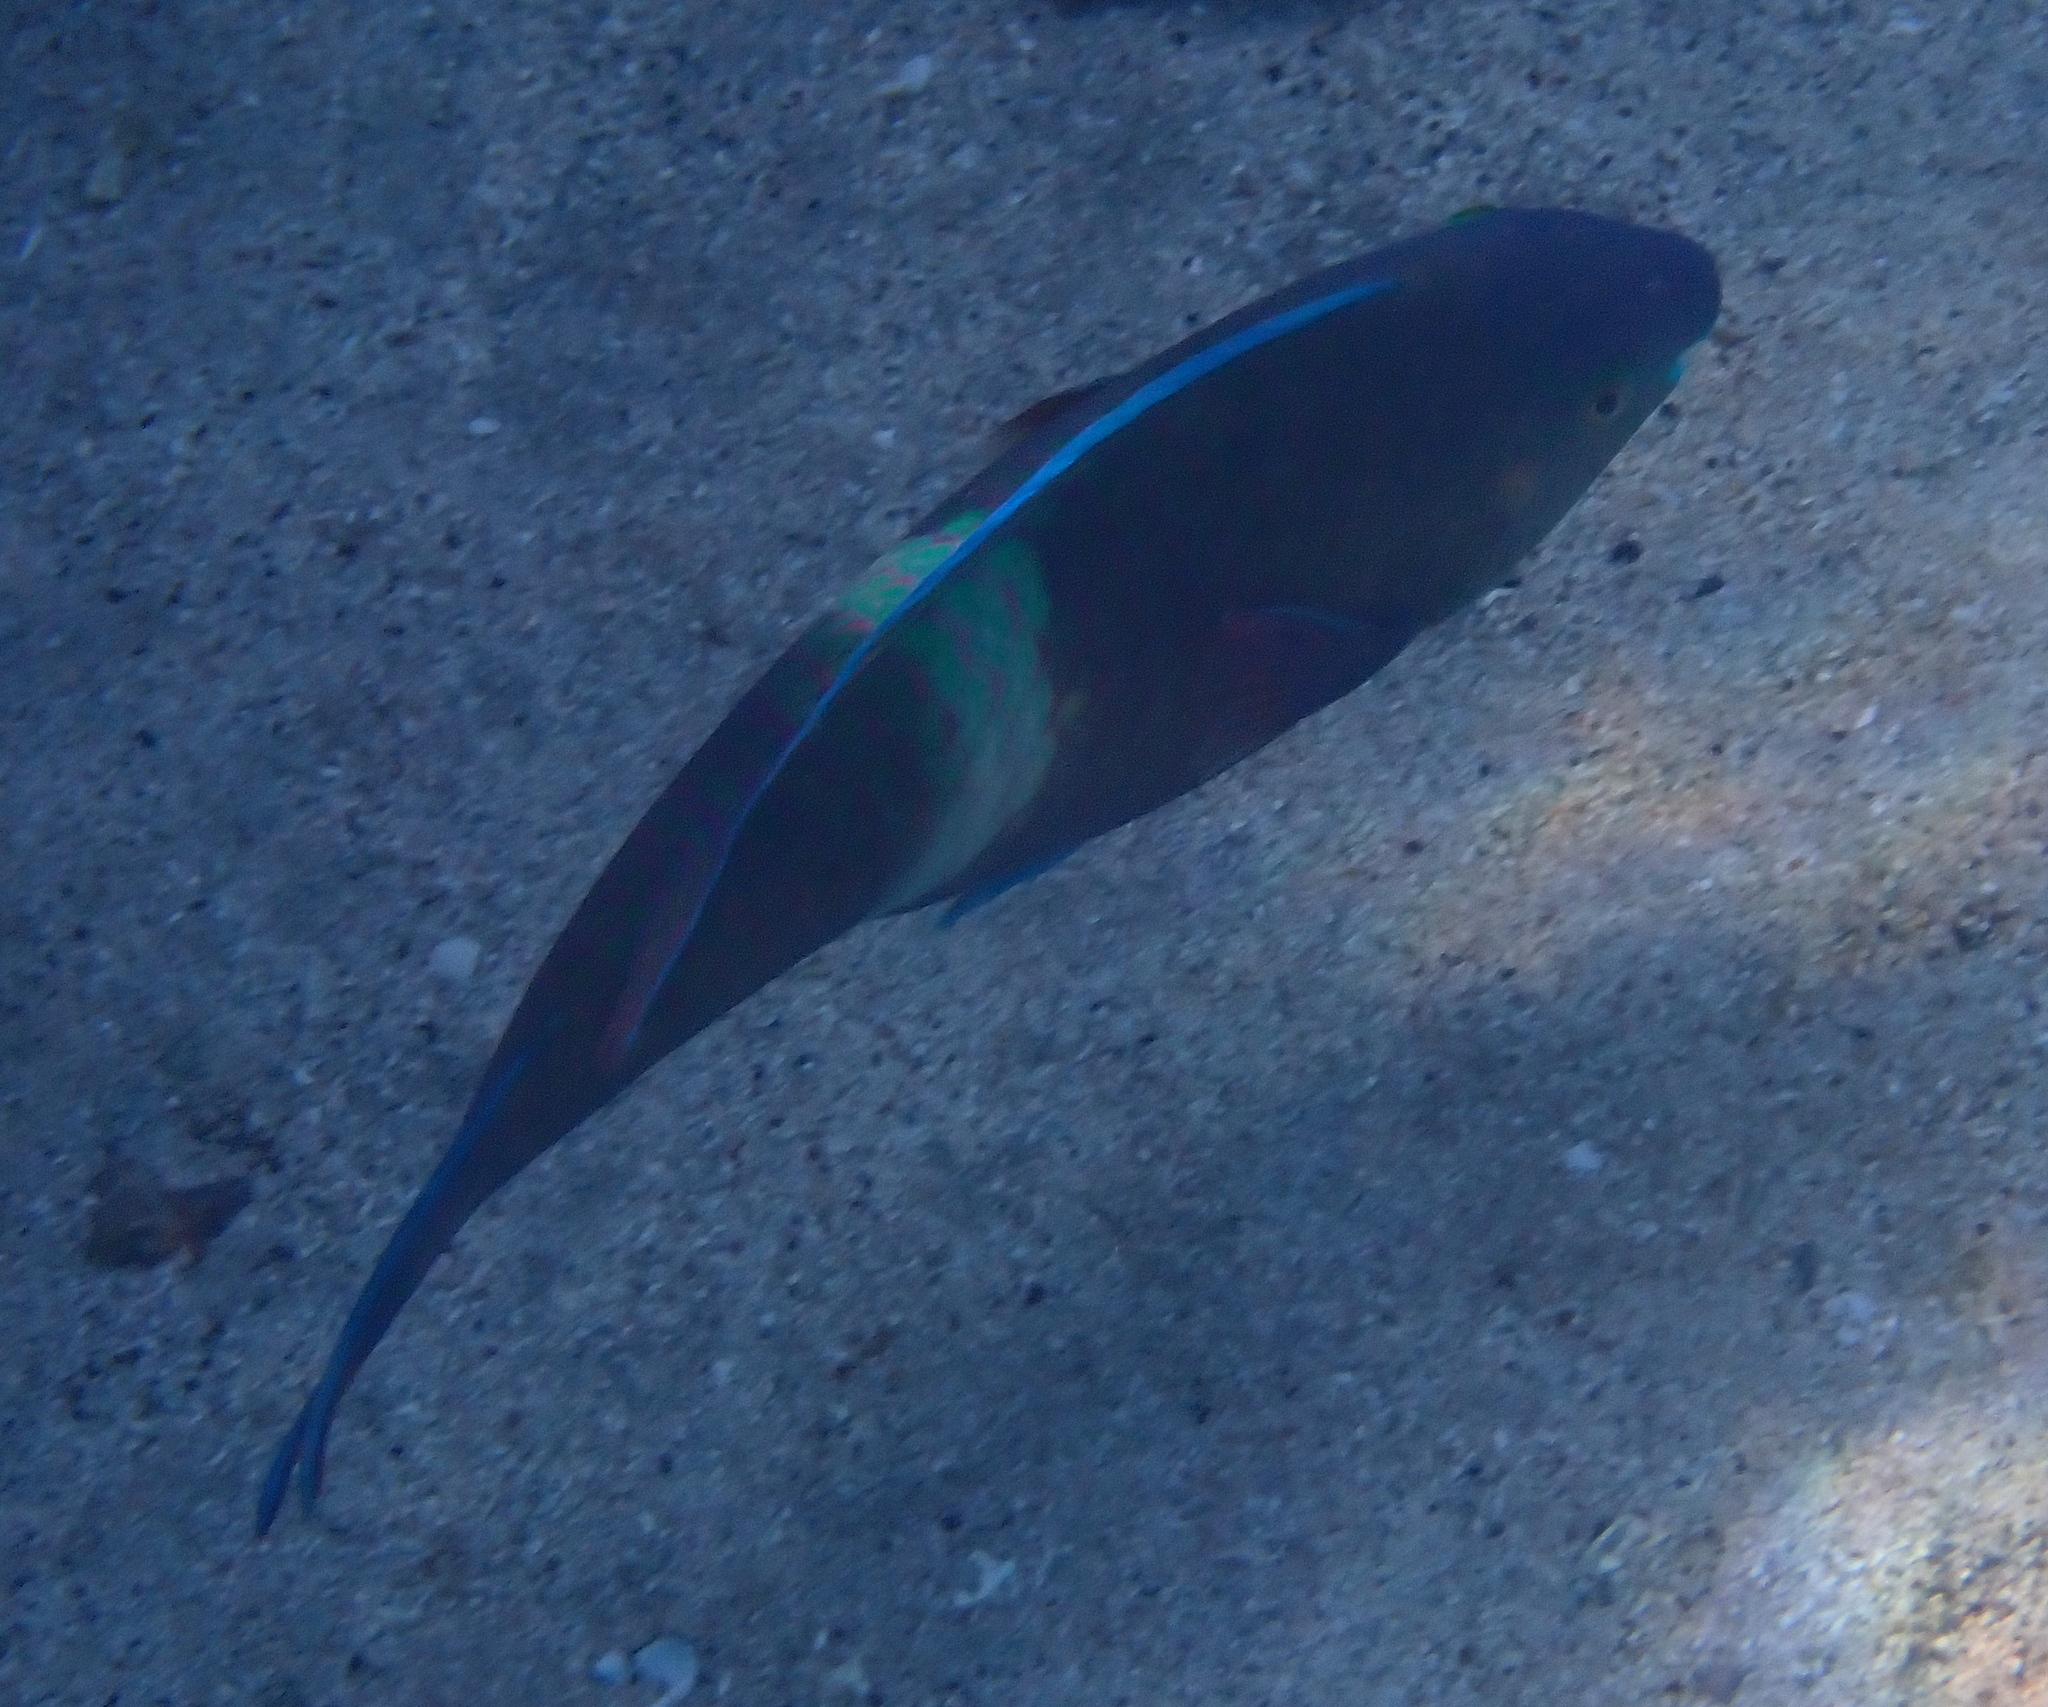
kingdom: Animalia
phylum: Chordata
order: Perciformes
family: Scaridae
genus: Scarus
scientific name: Scarus fuscopurpureus
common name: Purple-brown parrotfish
